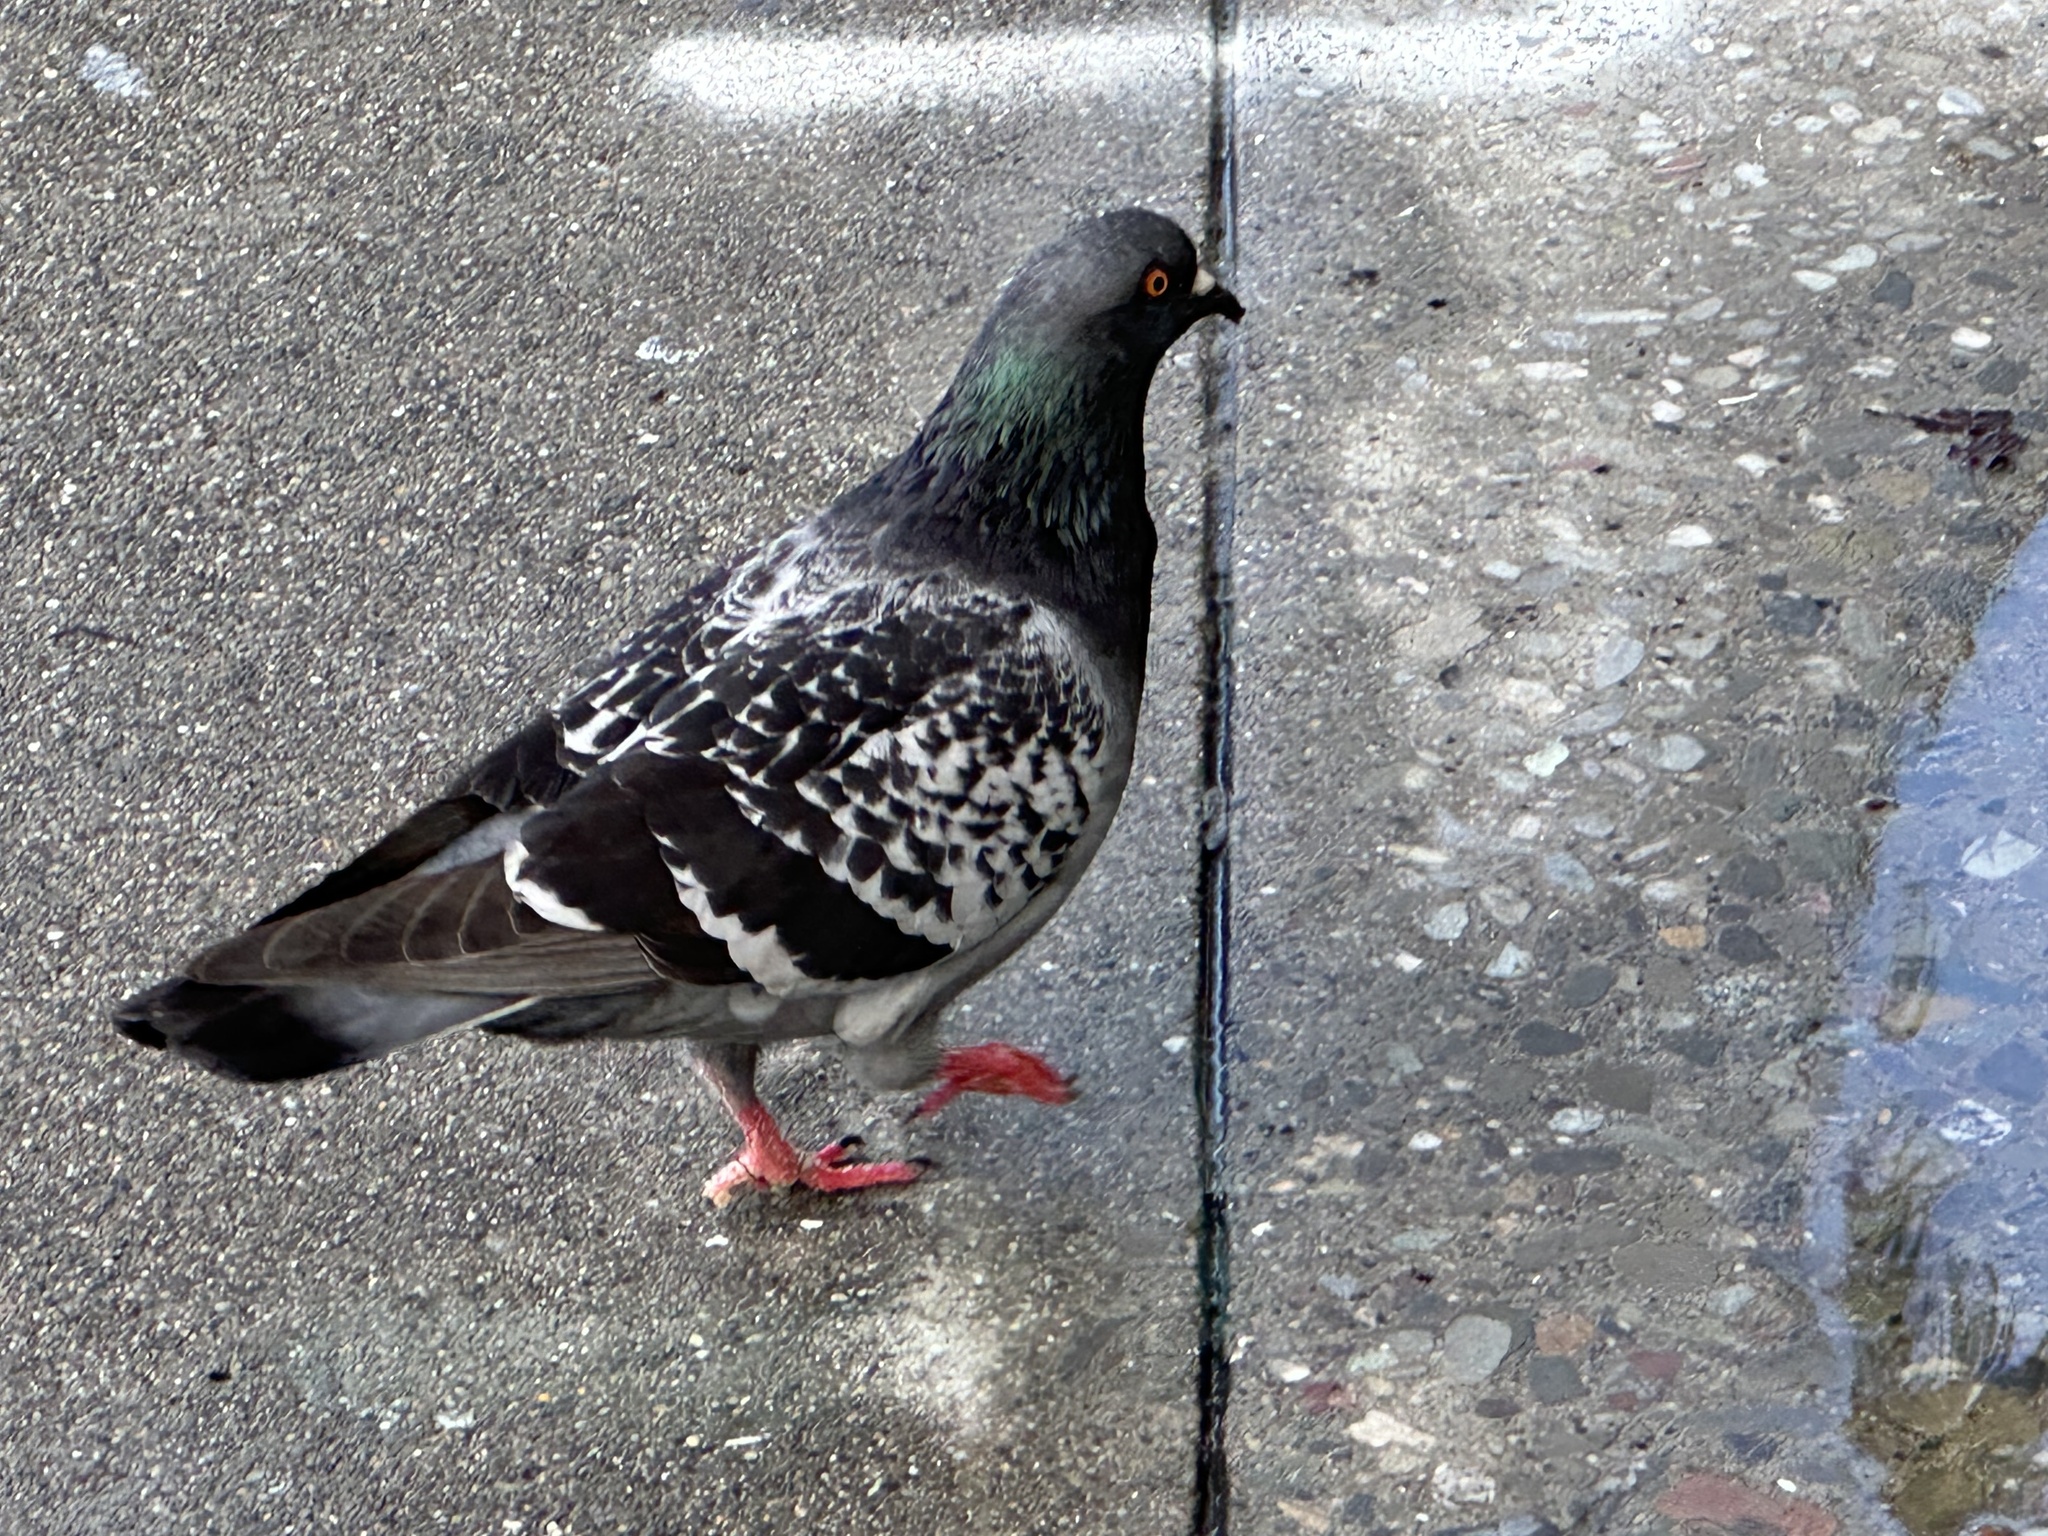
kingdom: Animalia
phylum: Chordata
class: Aves
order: Columbiformes
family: Columbidae
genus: Columba
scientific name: Columba livia
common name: Rock pigeon
